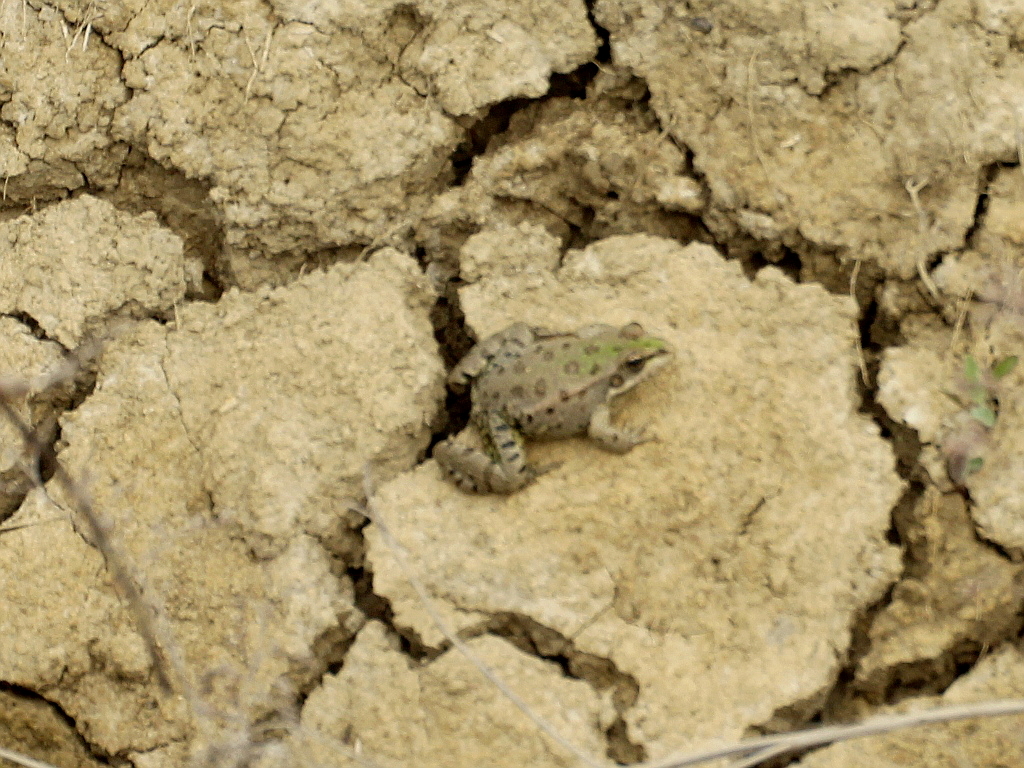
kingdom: Animalia
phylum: Chordata
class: Amphibia
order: Anura
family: Ranidae
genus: Pelophylax
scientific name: Pelophylax ridibundus
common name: Marsh frog
